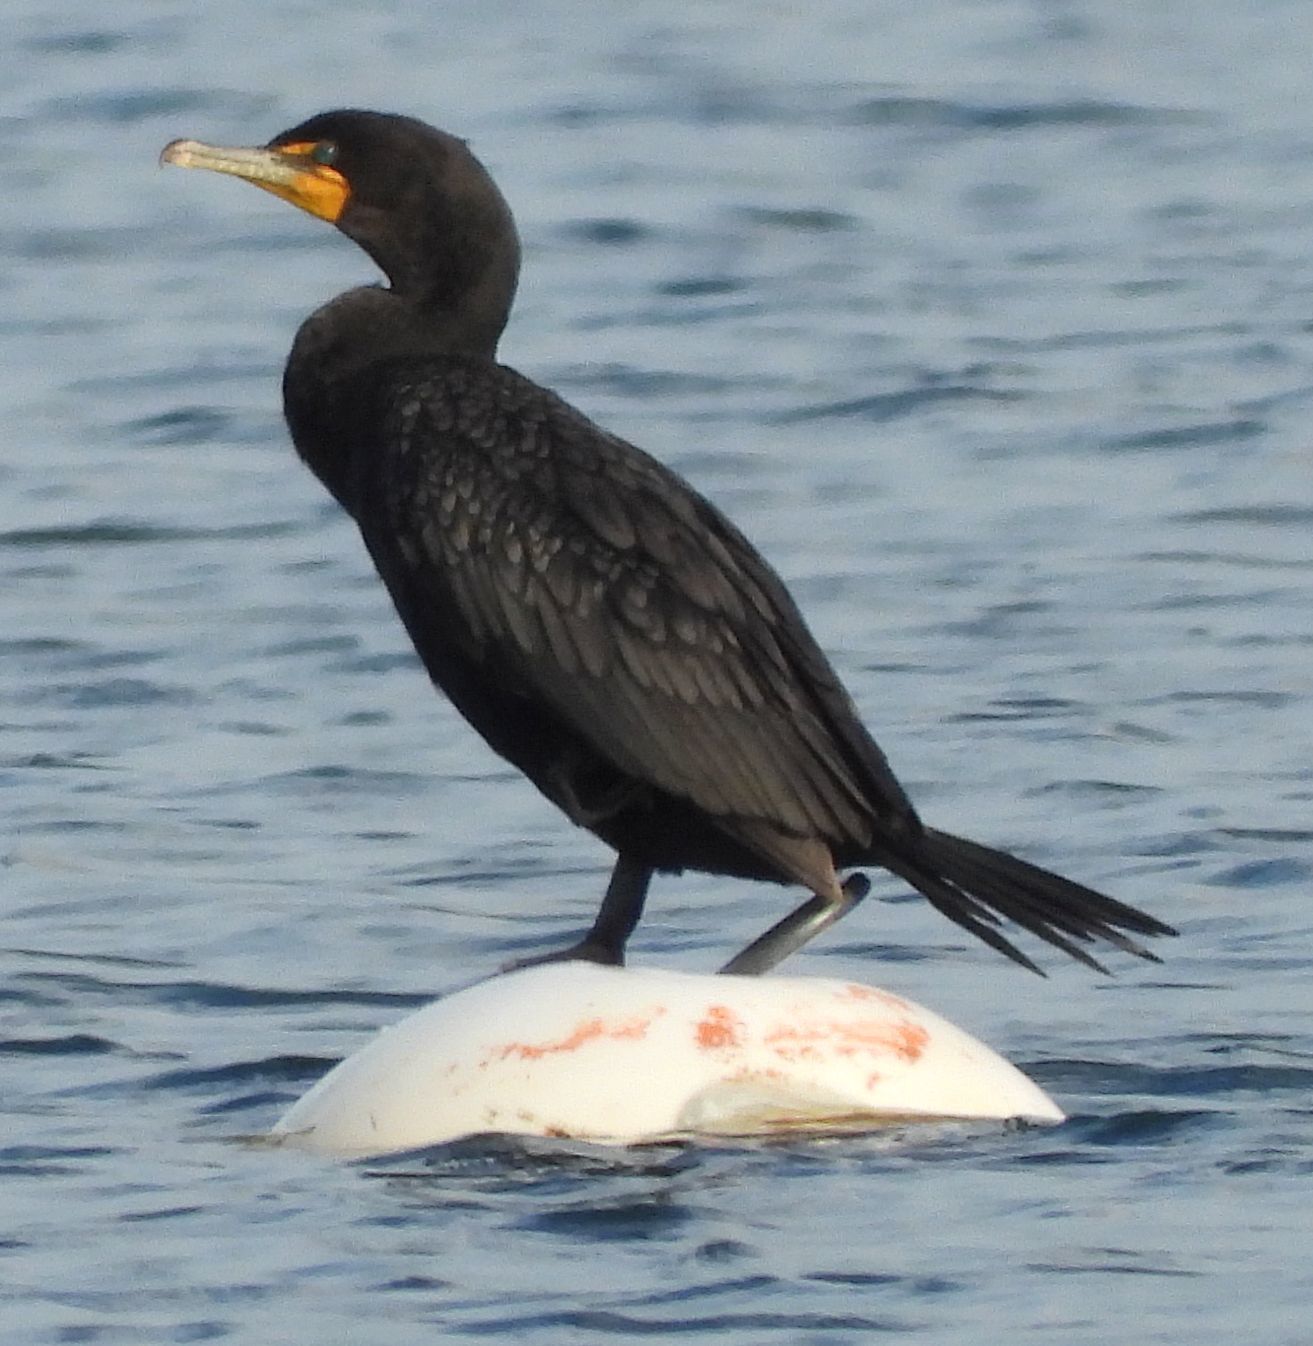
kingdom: Animalia
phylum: Chordata
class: Aves
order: Suliformes
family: Phalacrocoracidae
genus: Phalacrocorax
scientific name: Phalacrocorax auritus
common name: Double-crested cormorant
